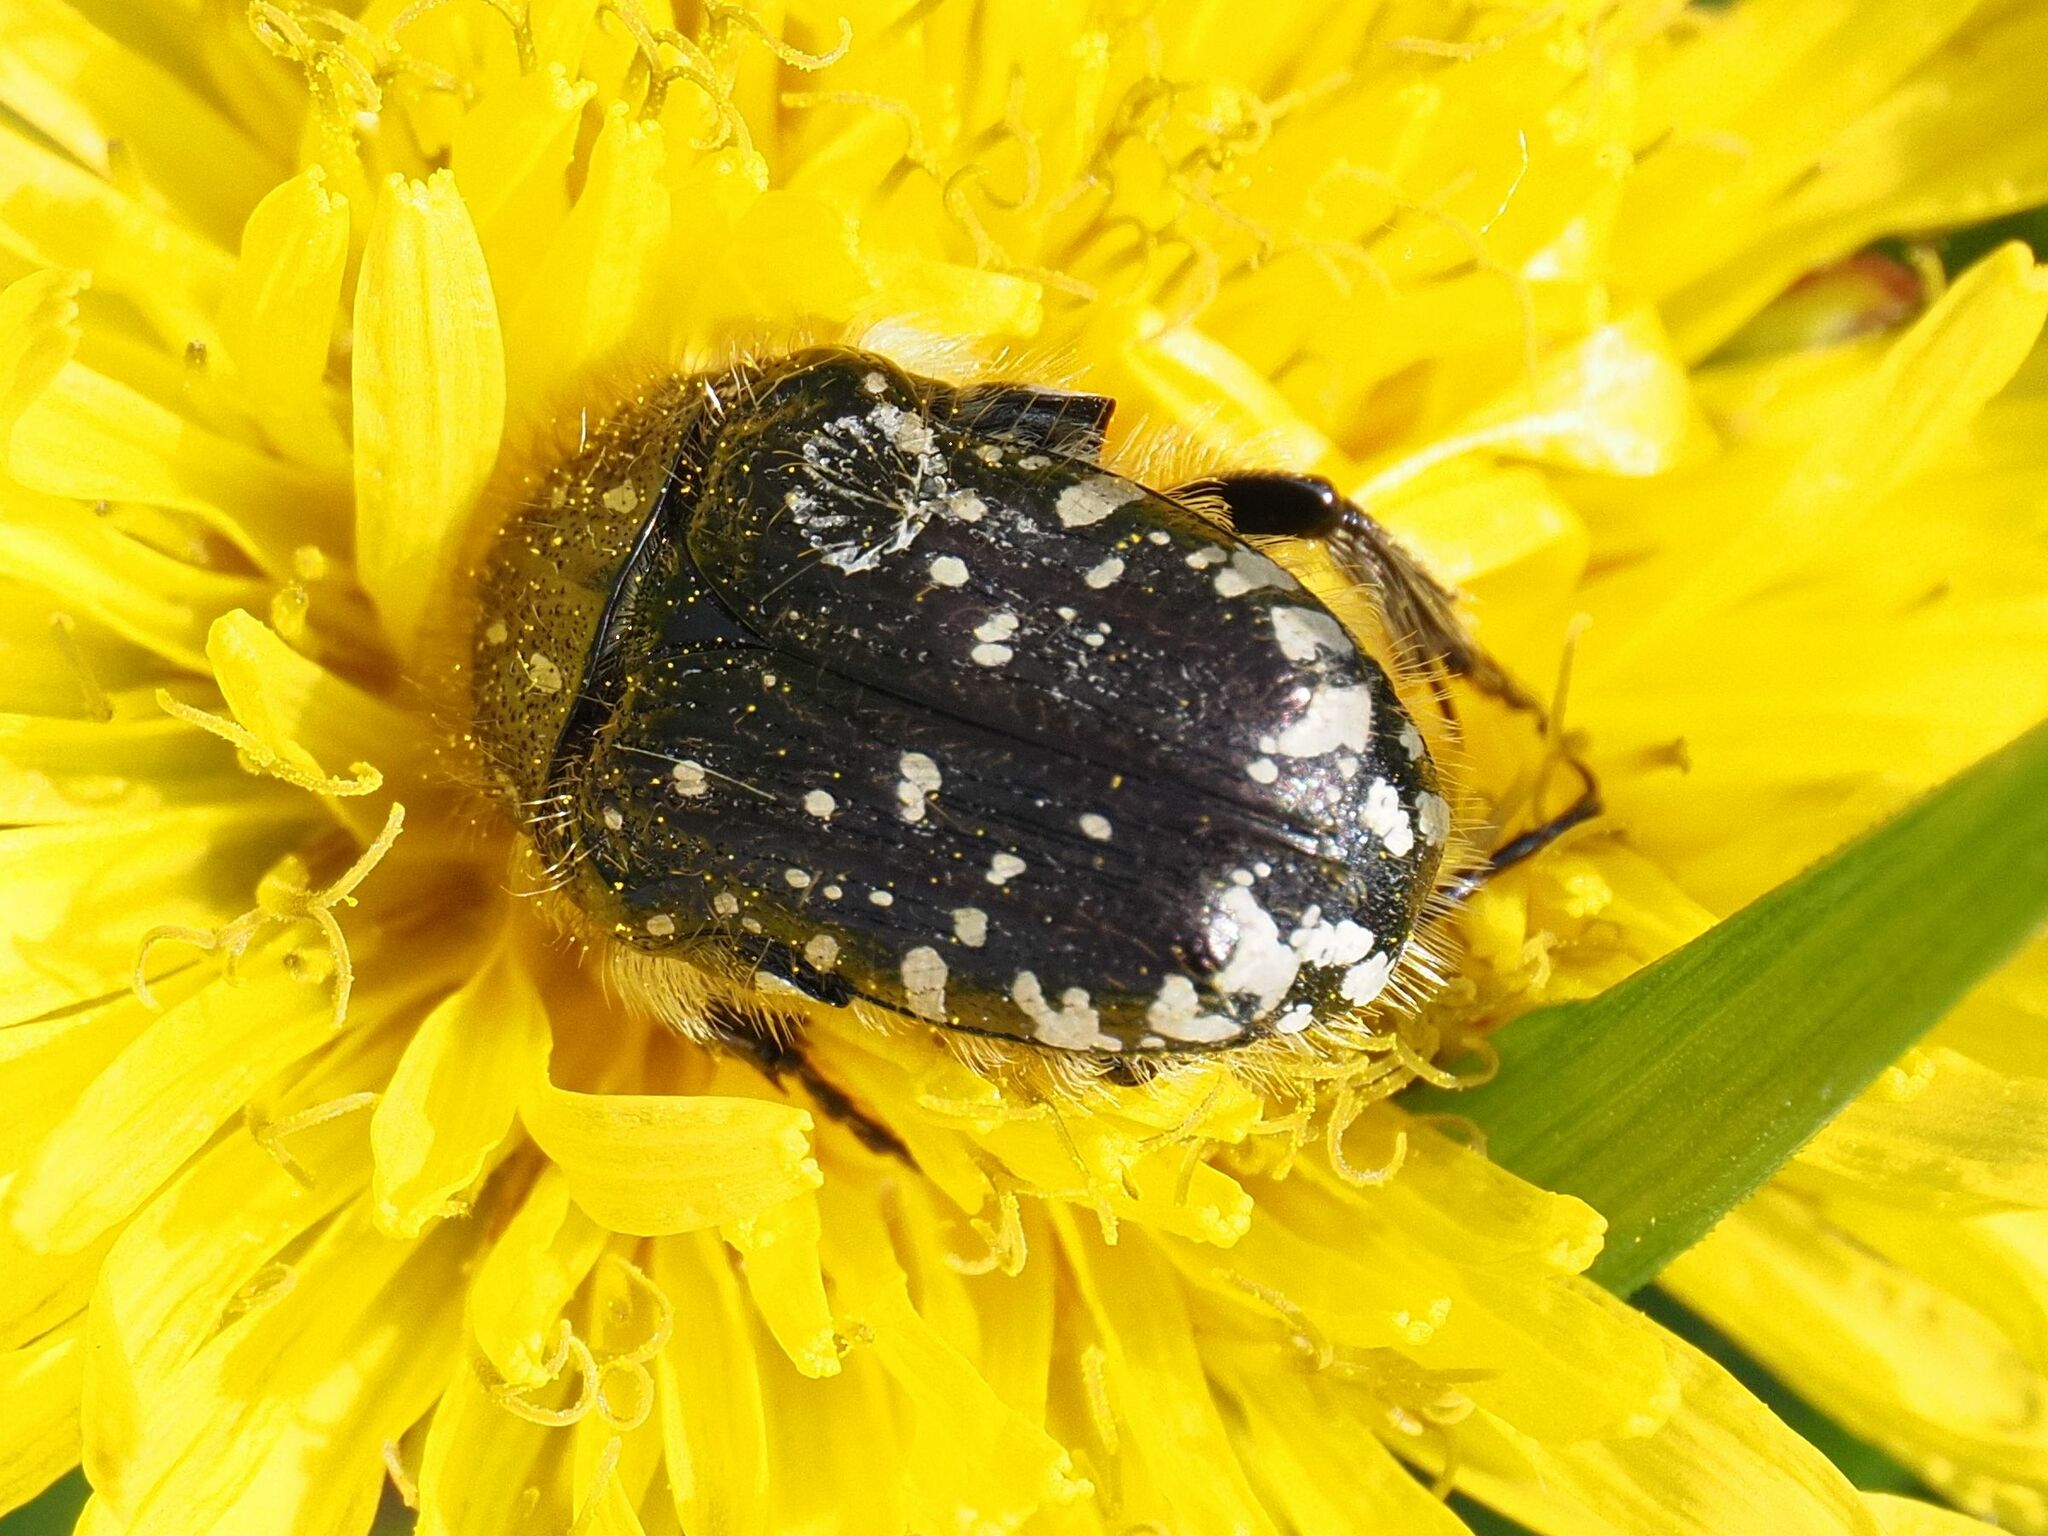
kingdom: Animalia
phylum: Arthropoda
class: Insecta
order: Coleoptera
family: Scarabaeidae
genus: Oxythyrea
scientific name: Oxythyrea funesta
